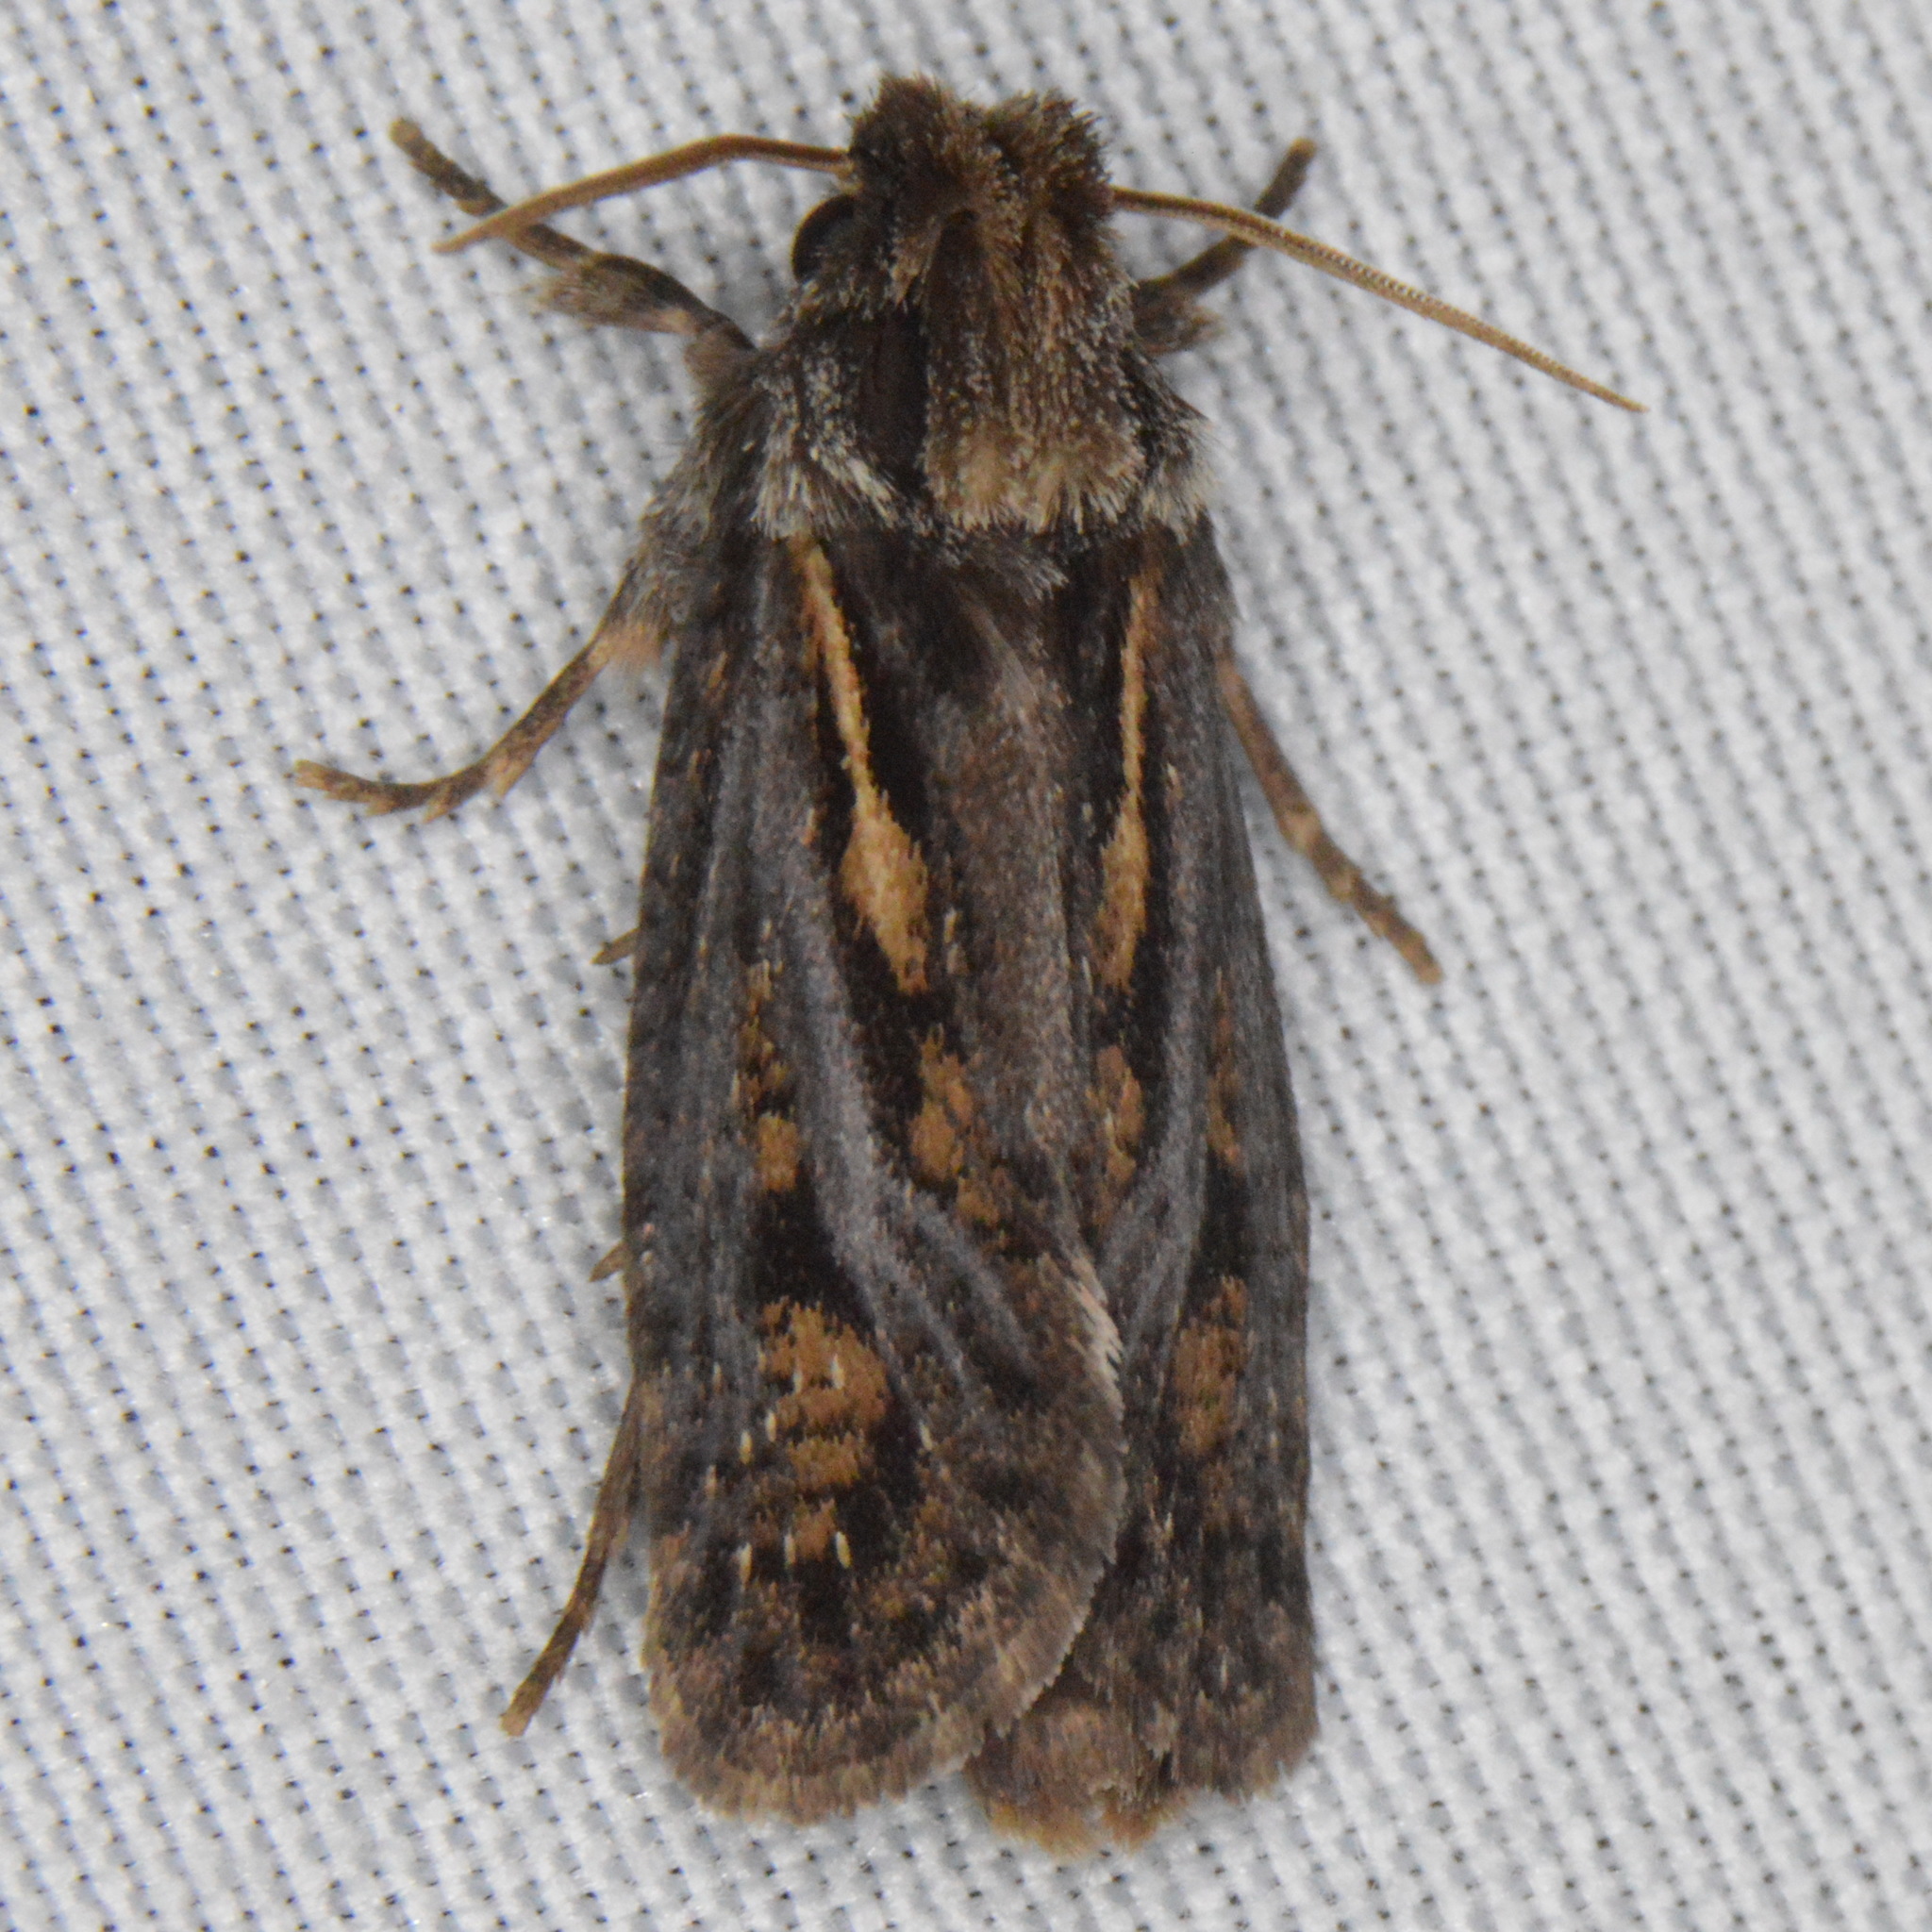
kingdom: Animalia
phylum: Arthropoda
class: Insecta
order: Lepidoptera
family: Tineidae
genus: Acrolophus
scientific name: Acrolophus popeanella
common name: Clemens' grass tubeworm moth
